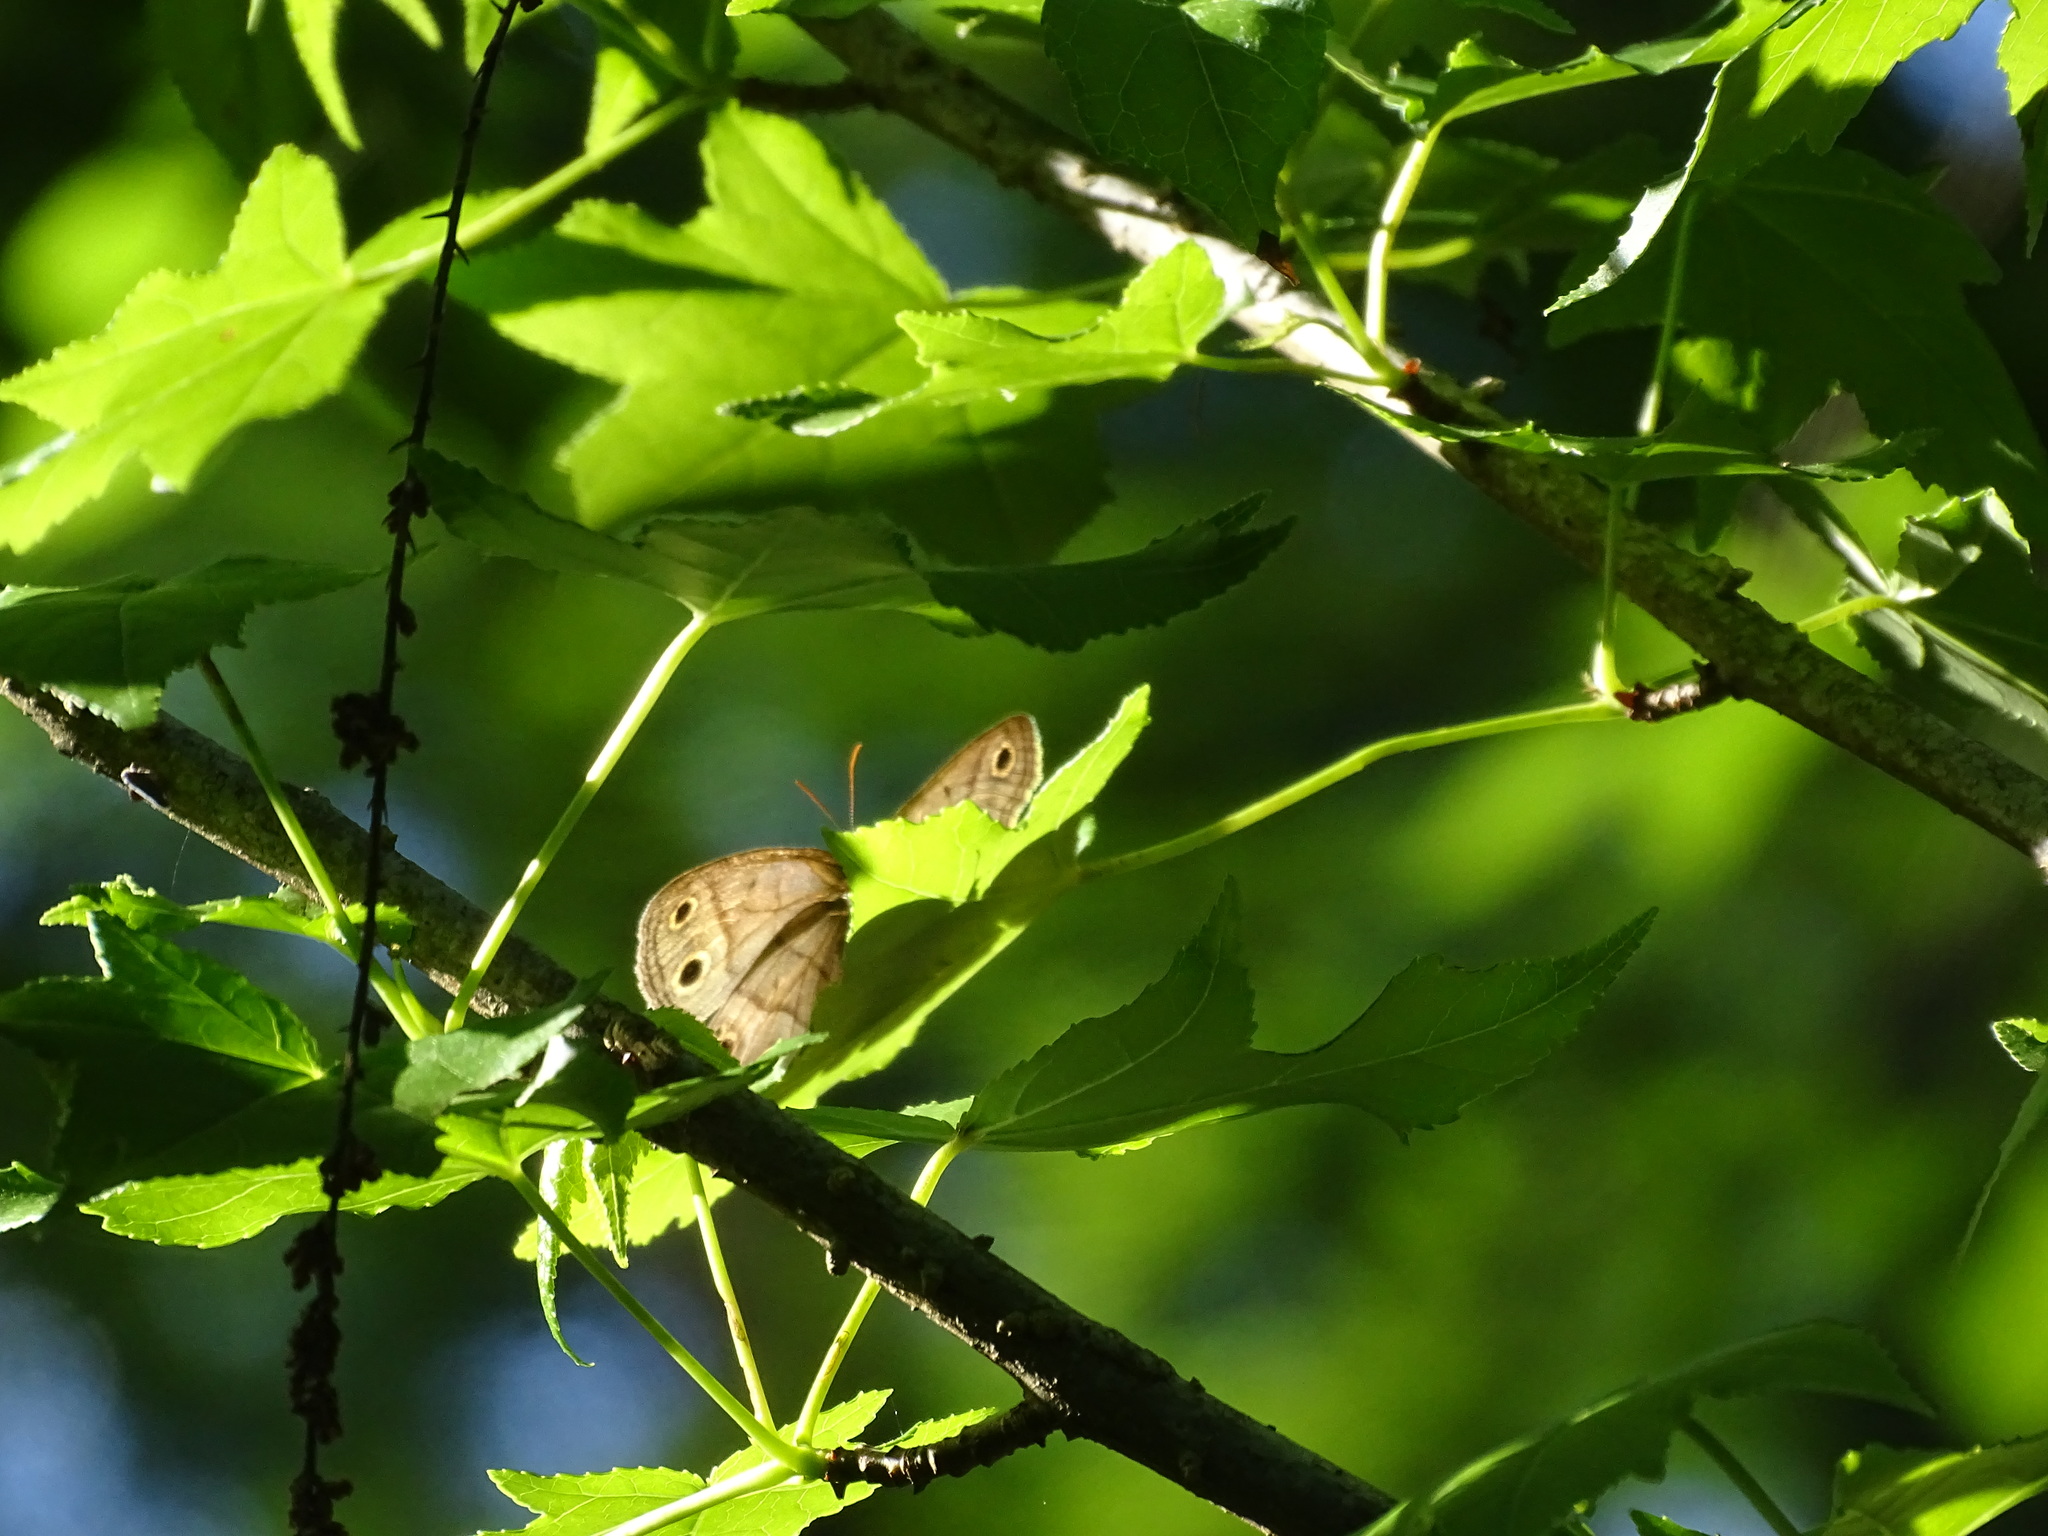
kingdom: Animalia
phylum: Arthropoda
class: Insecta
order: Lepidoptera
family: Nymphalidae
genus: Euptychia
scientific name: Euptychia cymela
